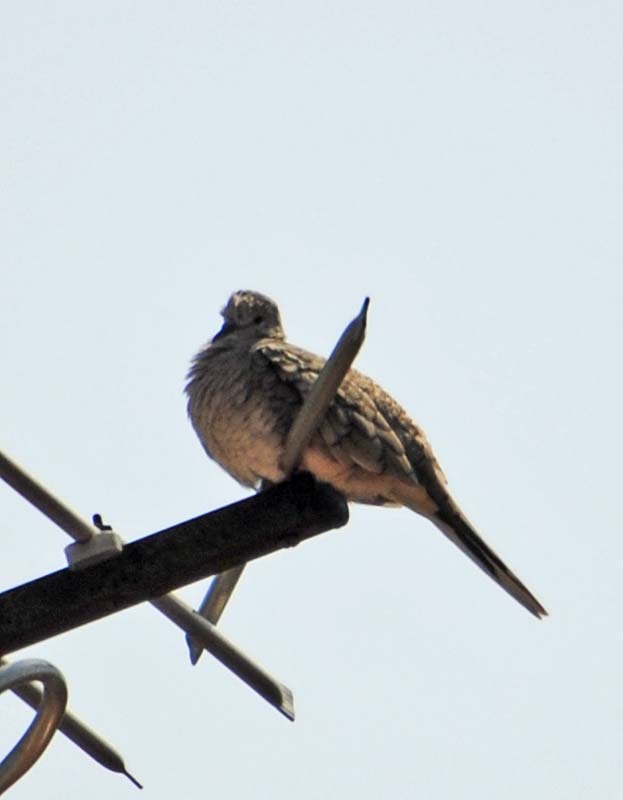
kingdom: Animalia
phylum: Chordata
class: Aves
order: Columbiformes
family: Columbidae
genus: Columbina
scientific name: Columbina inca
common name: Inca dove
